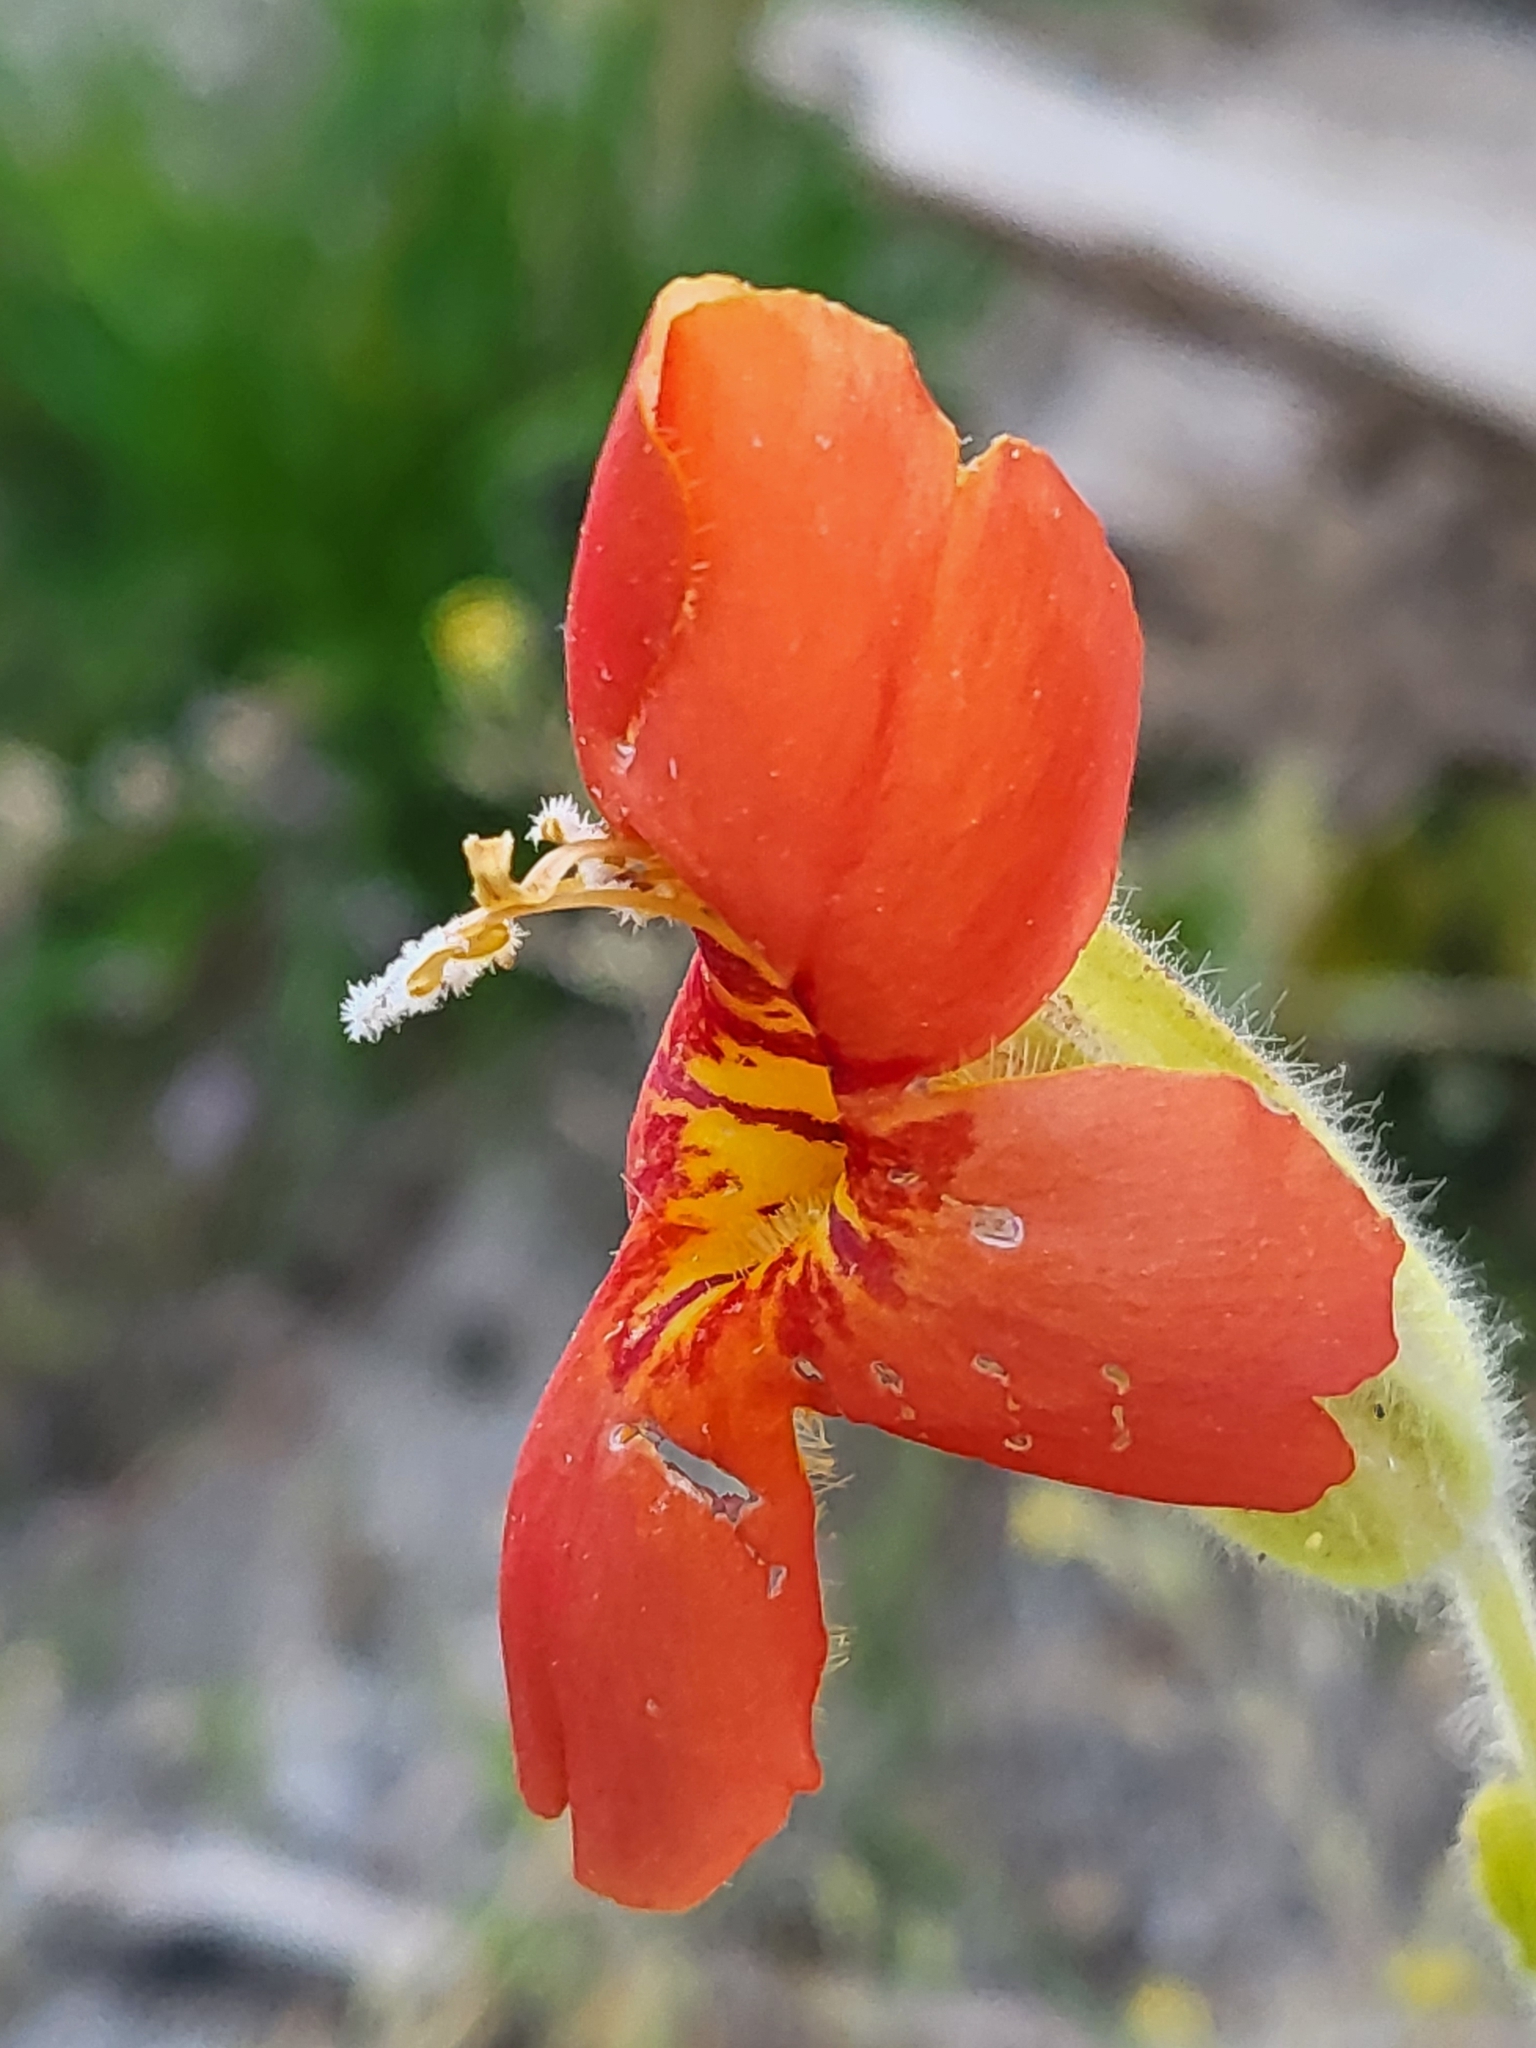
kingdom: Plantae
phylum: Tracheophyta
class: Magnoliopsida
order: Lamiales
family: Phrymaceae
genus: Erythranthe
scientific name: Erythranthe cardinalis
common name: Scarlet monkey-flower
